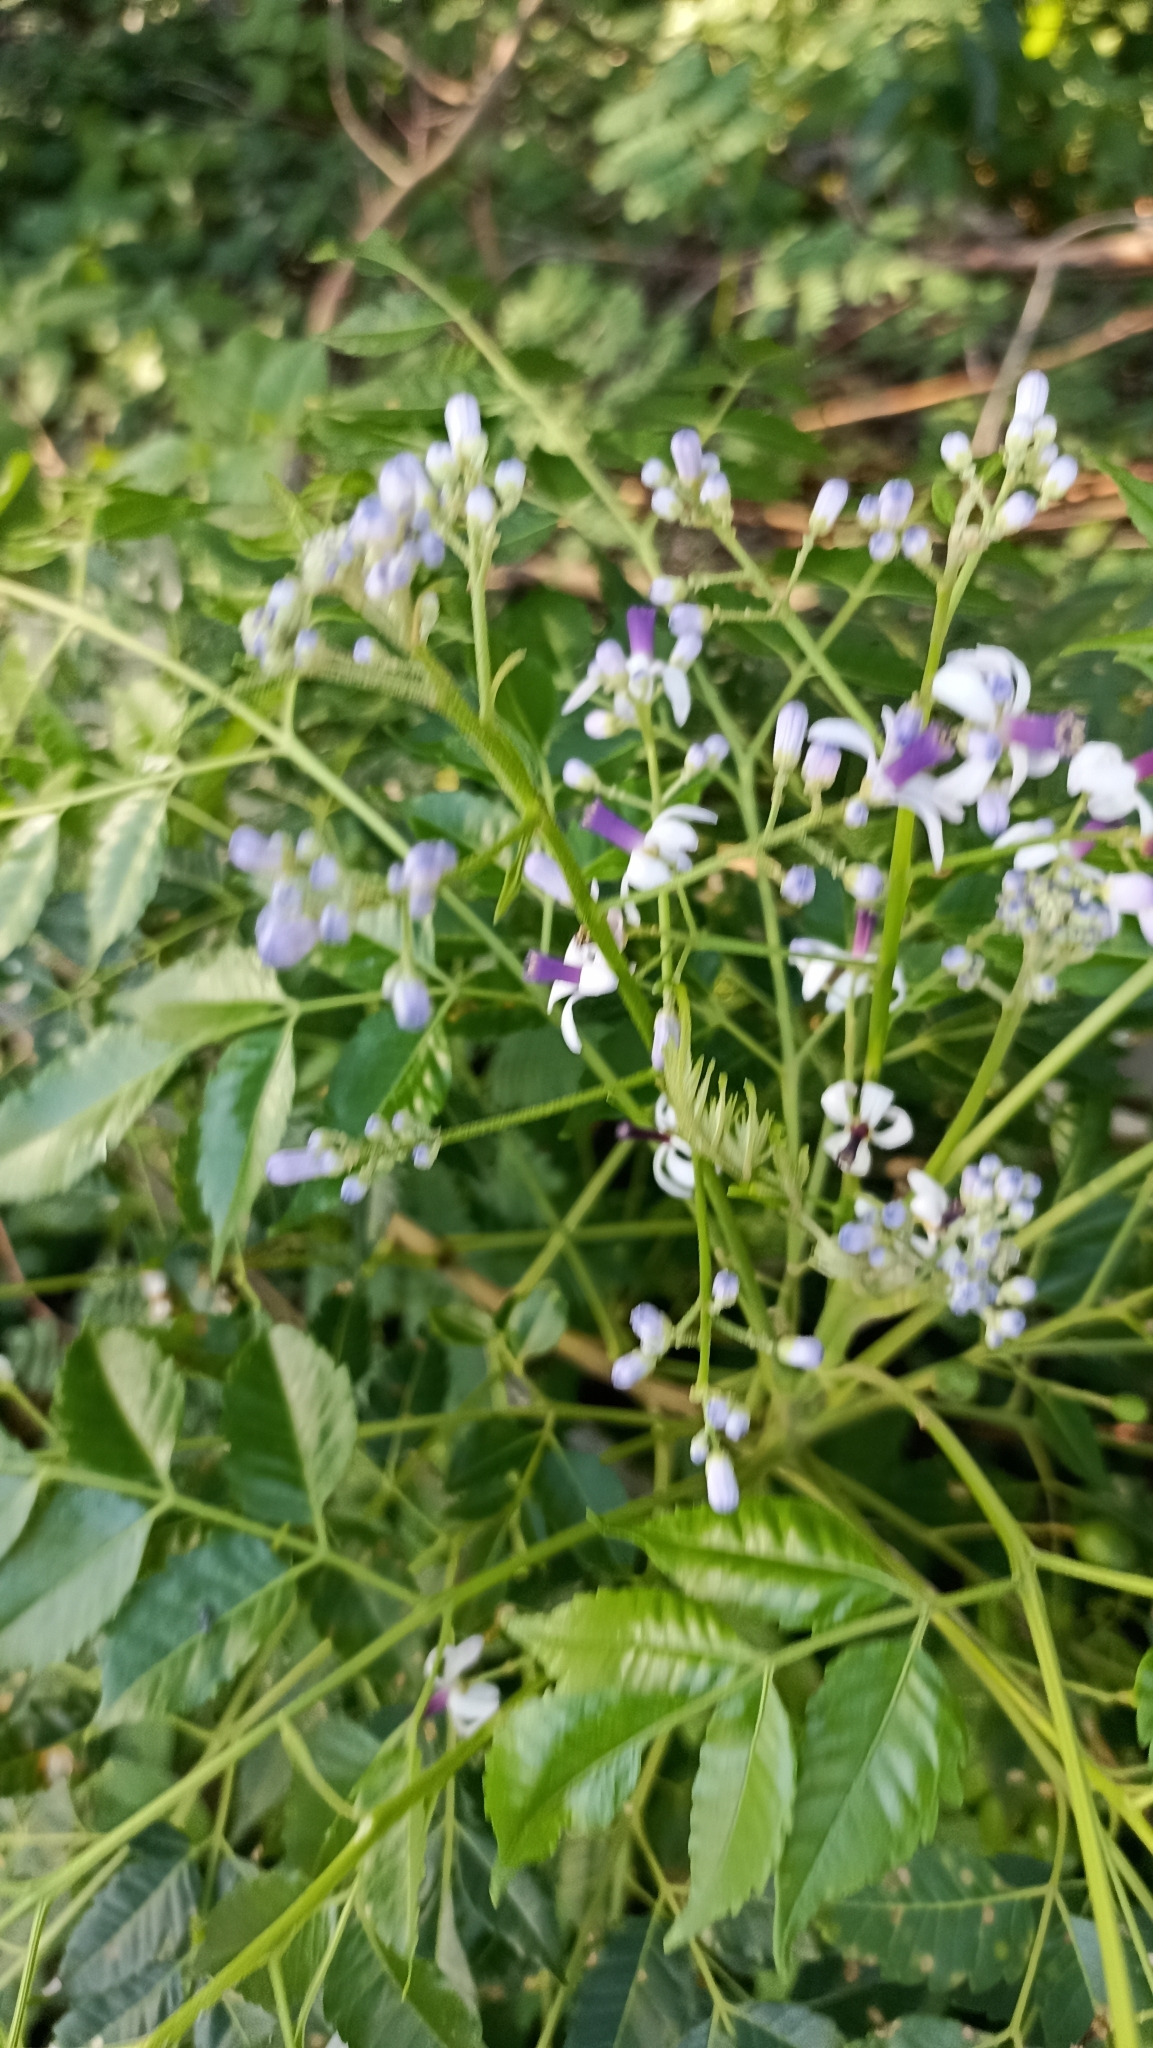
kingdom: Plantae
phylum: Tracheophyta
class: Magnoliopsida
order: Sapindales
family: Meliaceae
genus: Melia
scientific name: Melia azedarach
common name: Chinaberrytree
